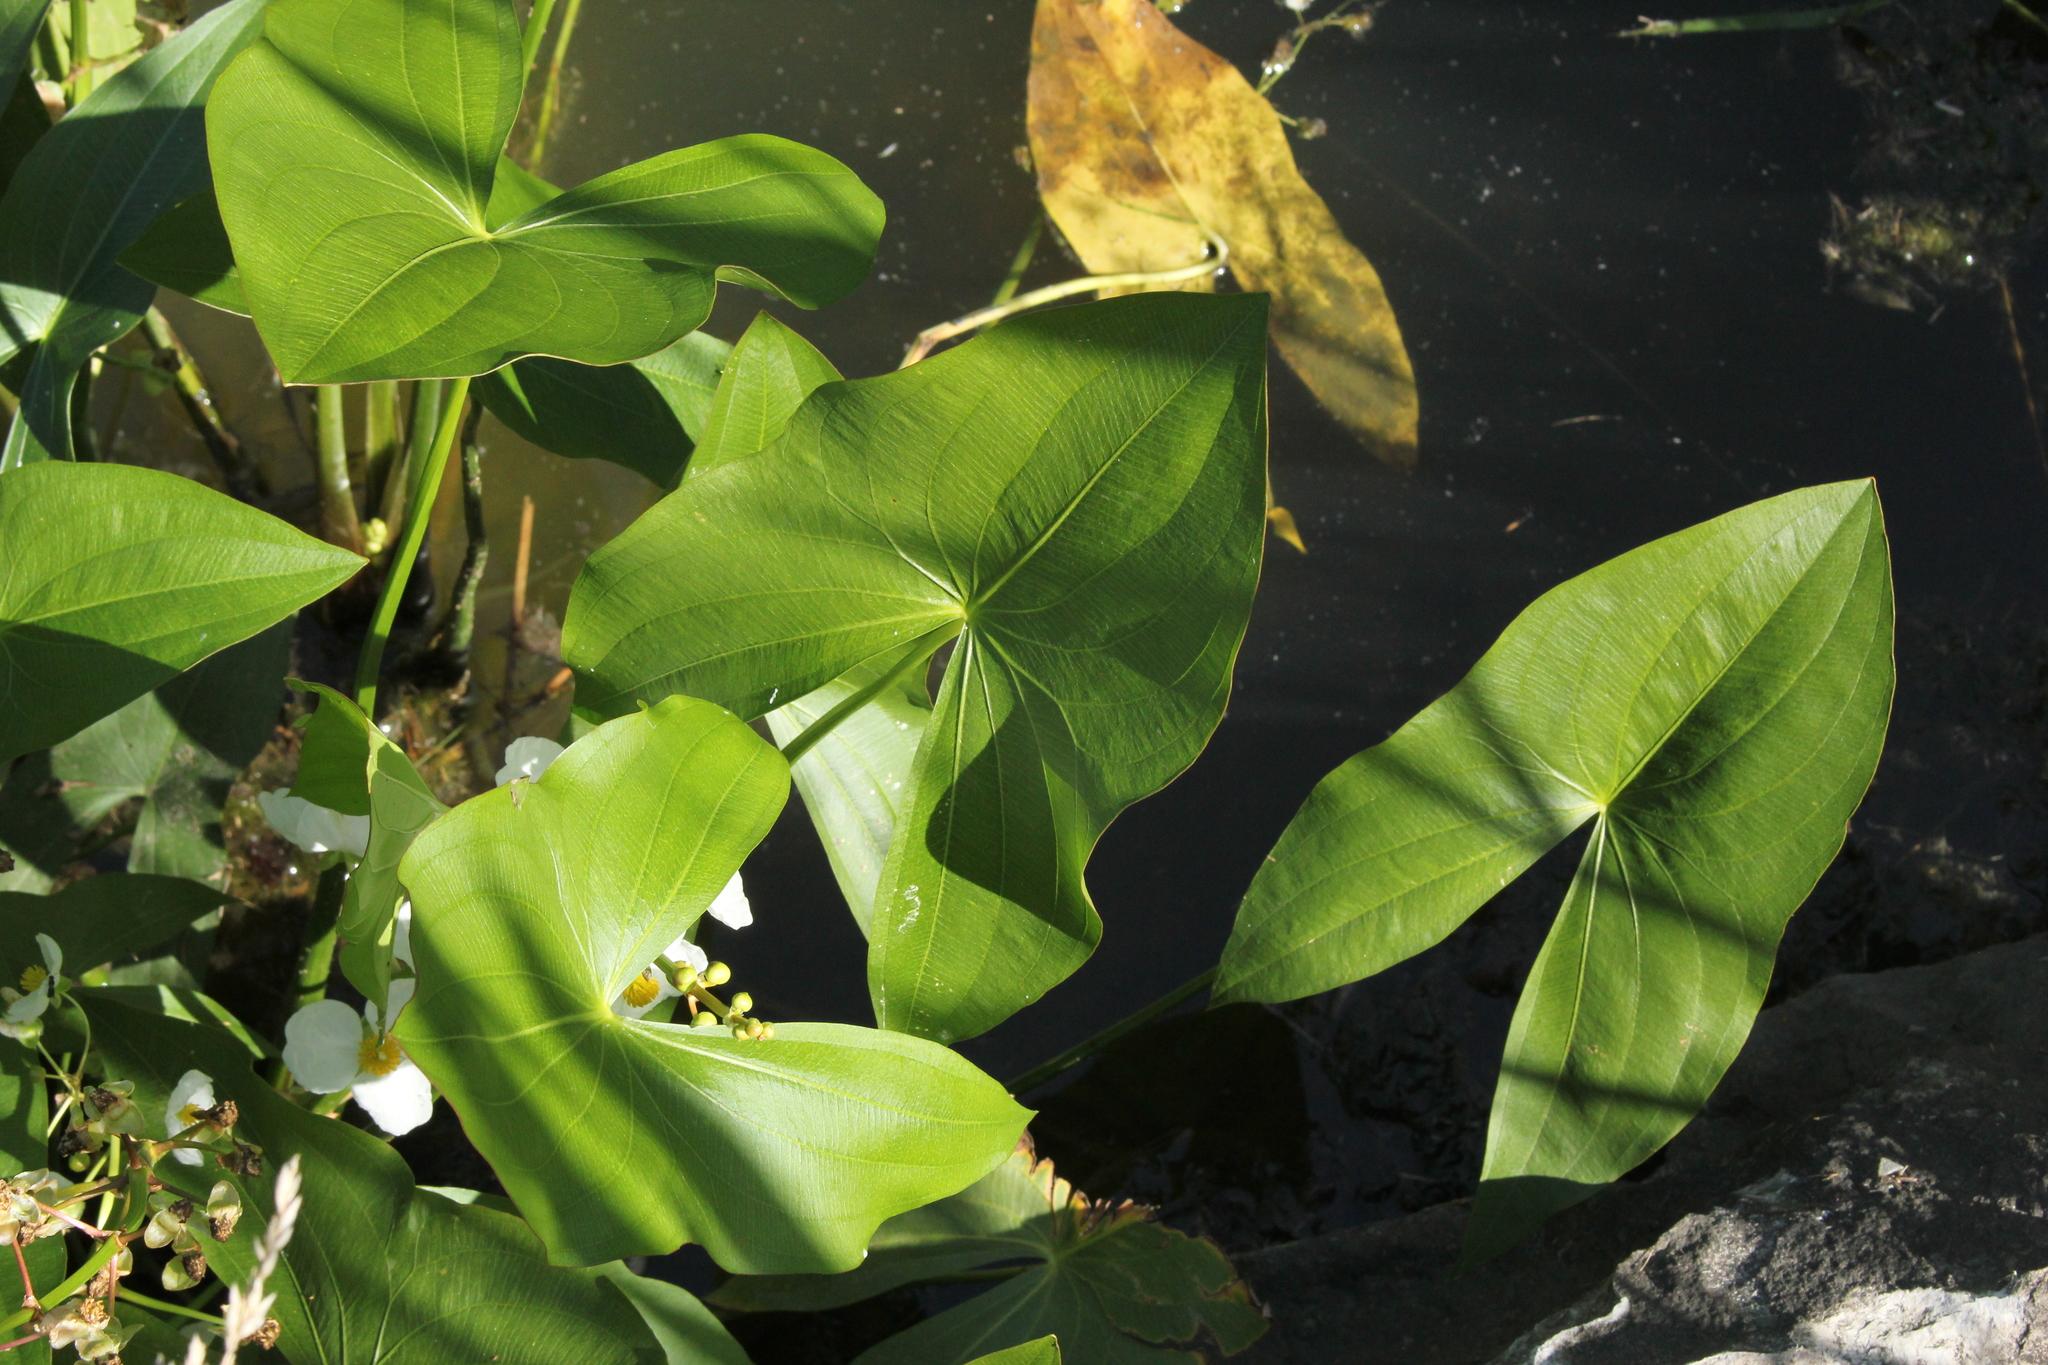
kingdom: Plantae
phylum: Tracheophyta
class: Liliopsida
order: Alismatales
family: Alismataceae
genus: Sagittaria
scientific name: Sagittaria latifolia
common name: Duck-potato
